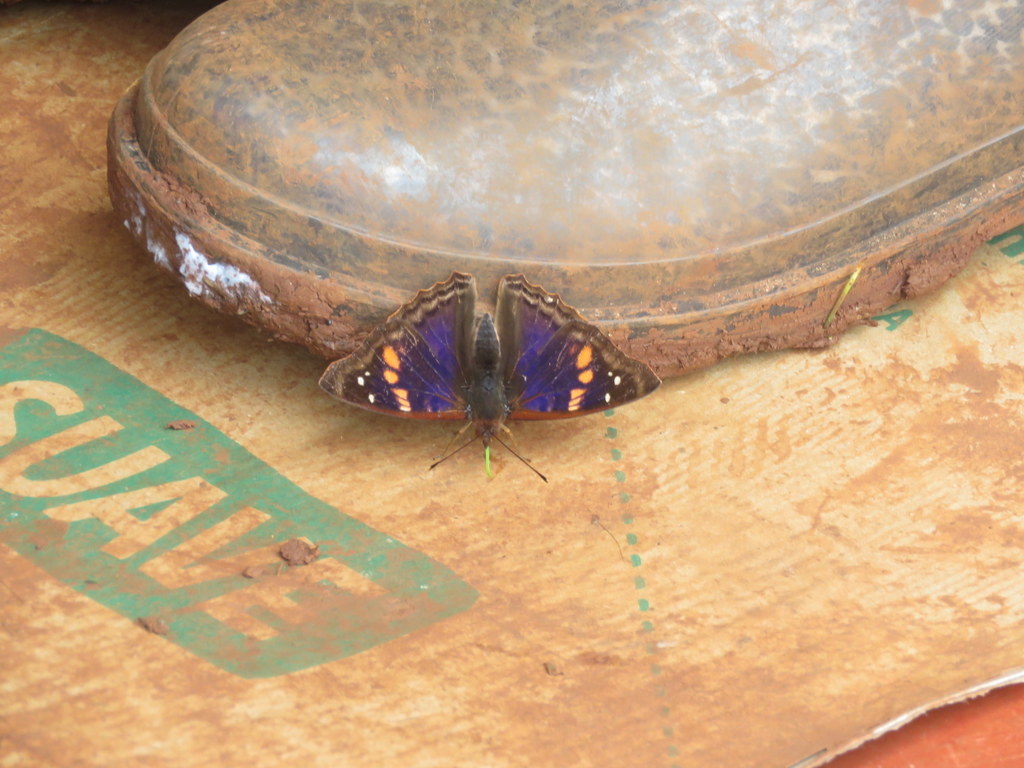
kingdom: Animalia
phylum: Arthropoda
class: Insecta
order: Lepidoptera
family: Nymphalidae
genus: Doxocopa
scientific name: Doxocopa agathina
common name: Agathina emperor
